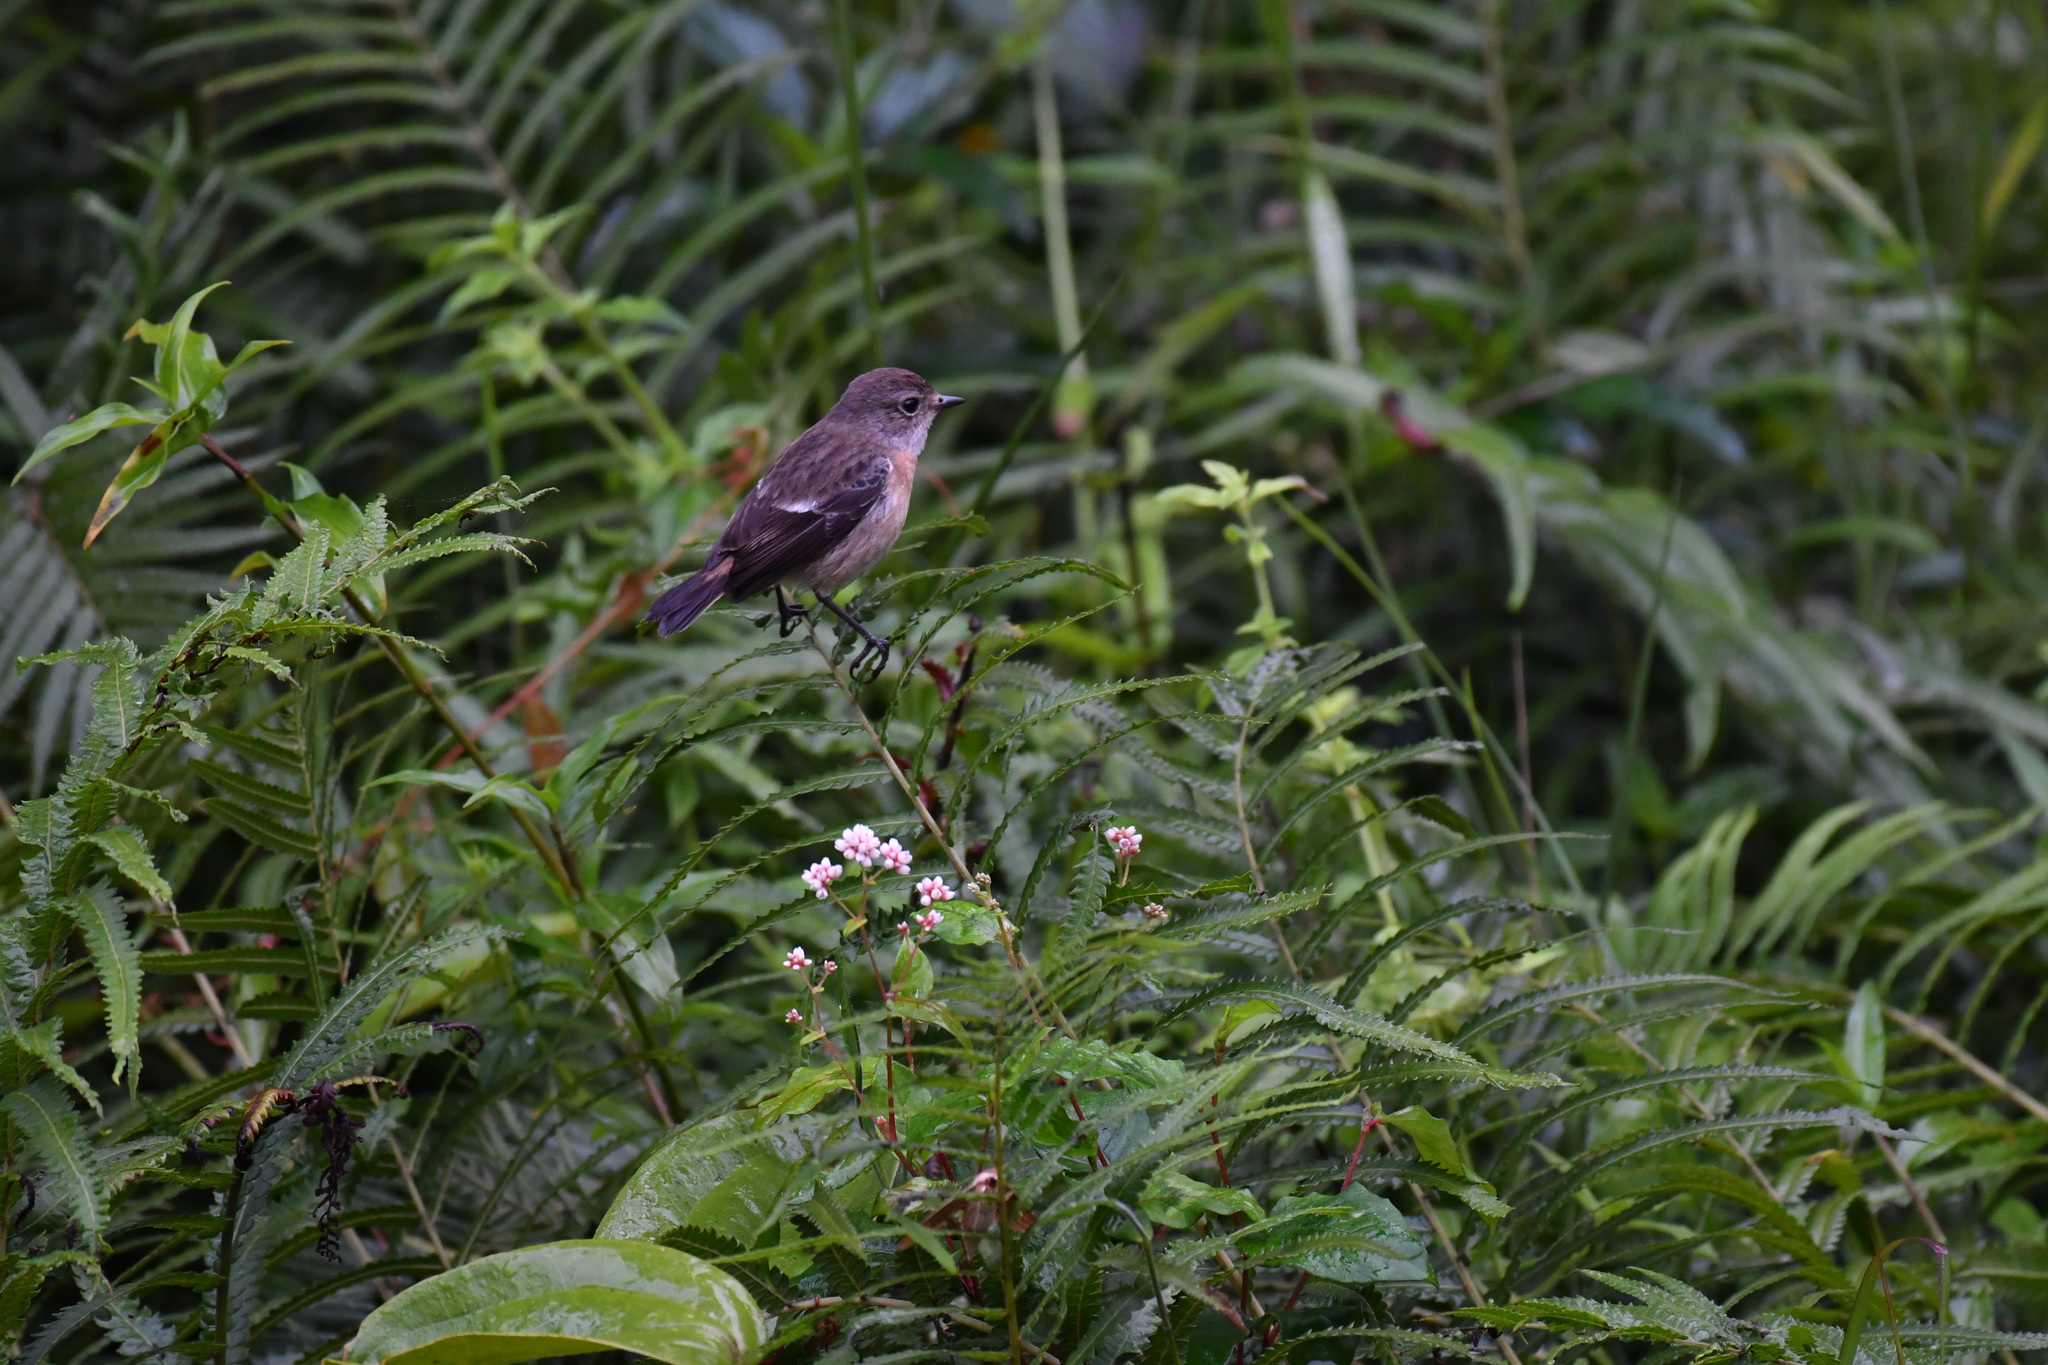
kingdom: Animalia
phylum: Chordata
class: Aves
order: Passeriformes
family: Muscicapidae
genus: Saxicola
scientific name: Saxicola torquatus
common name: African stonechat
